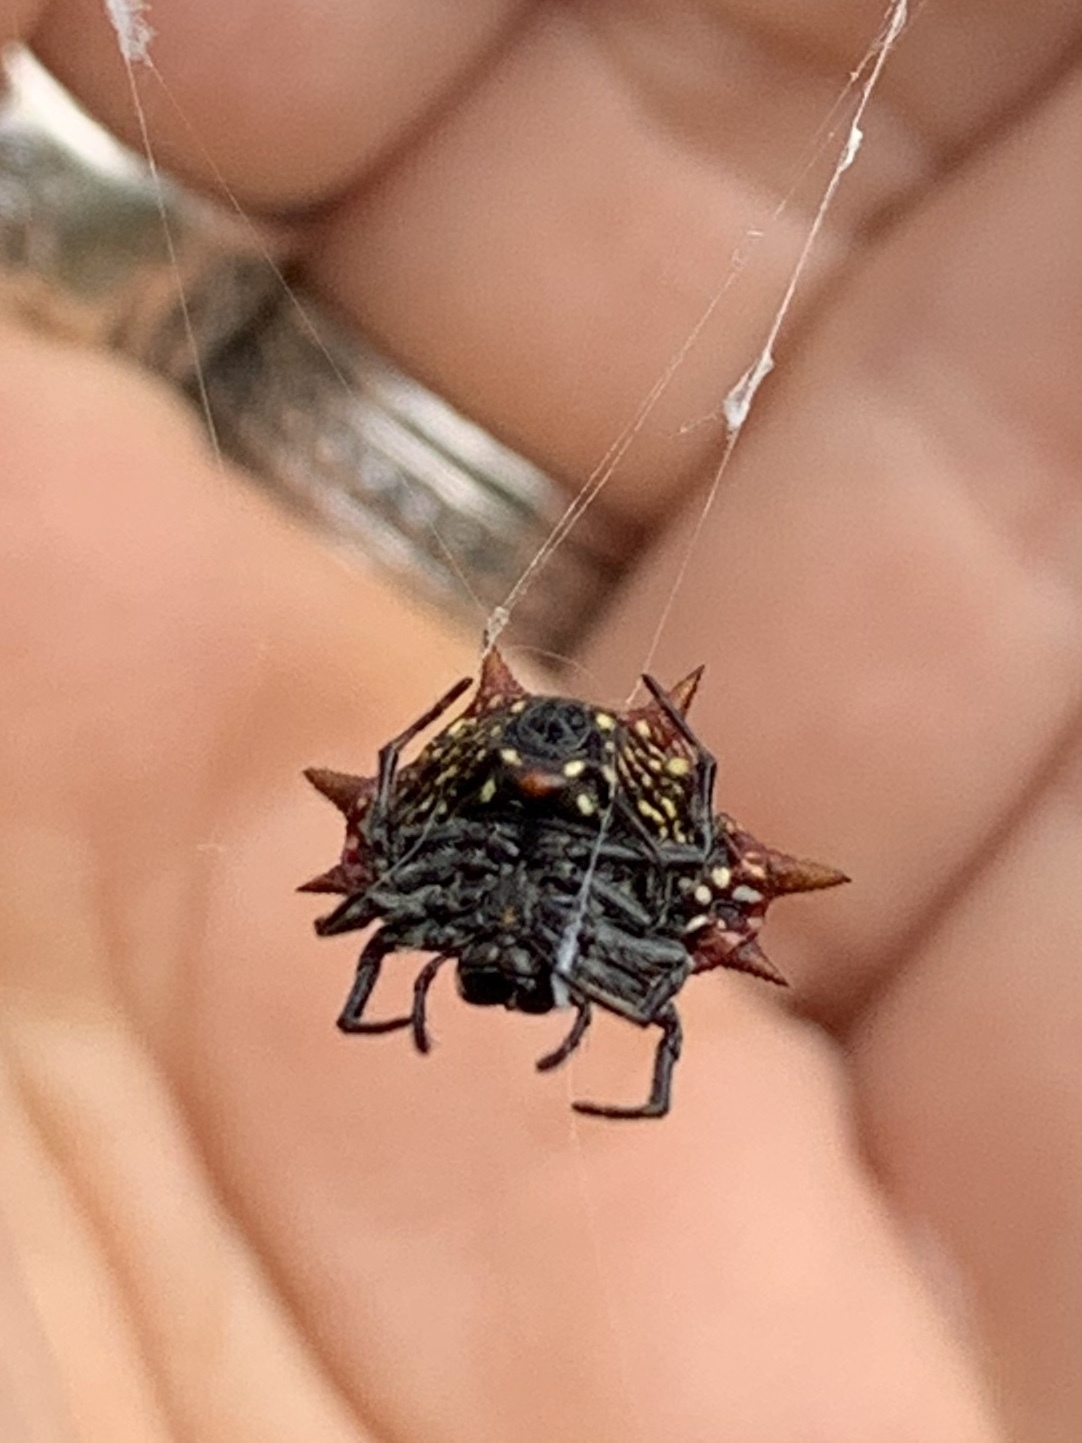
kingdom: Animalia
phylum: Arthropoda
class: Arachnida
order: Araneae
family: Araneidae
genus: Gasteracantha
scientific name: Gasteracantha cancriformis
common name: Orb weavers
